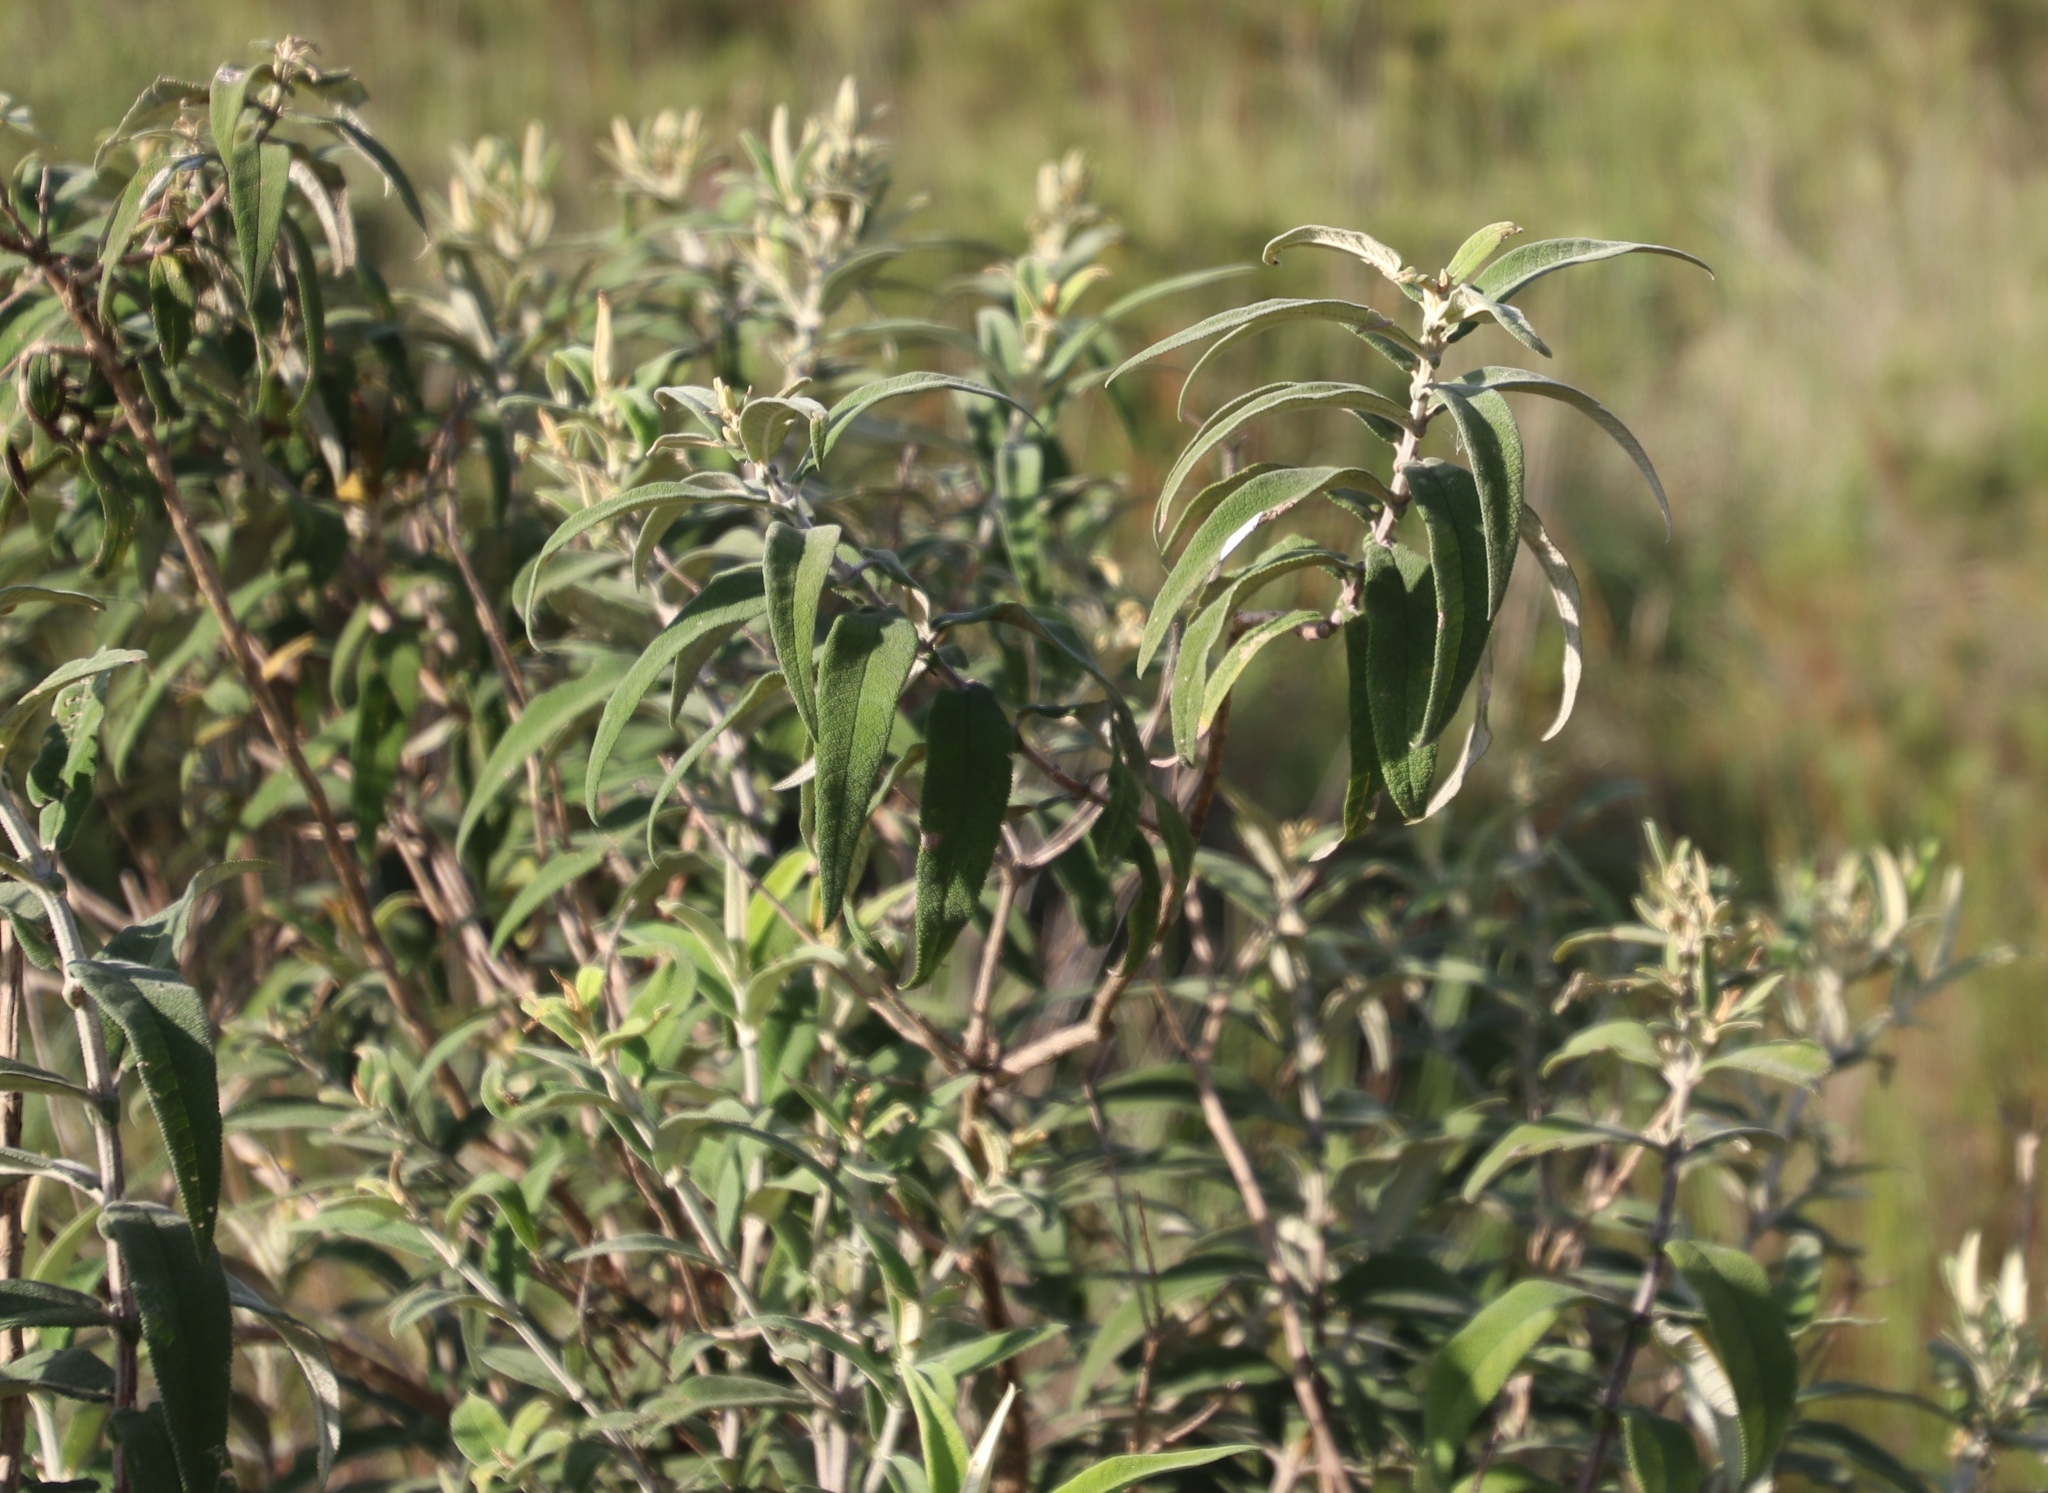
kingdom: Plantae
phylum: Tracheophyta
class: Magnoliopsida
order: Lamiales
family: Scrophulariaceae
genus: Buddleja
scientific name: Buddleja salviifolia
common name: Sagewood
